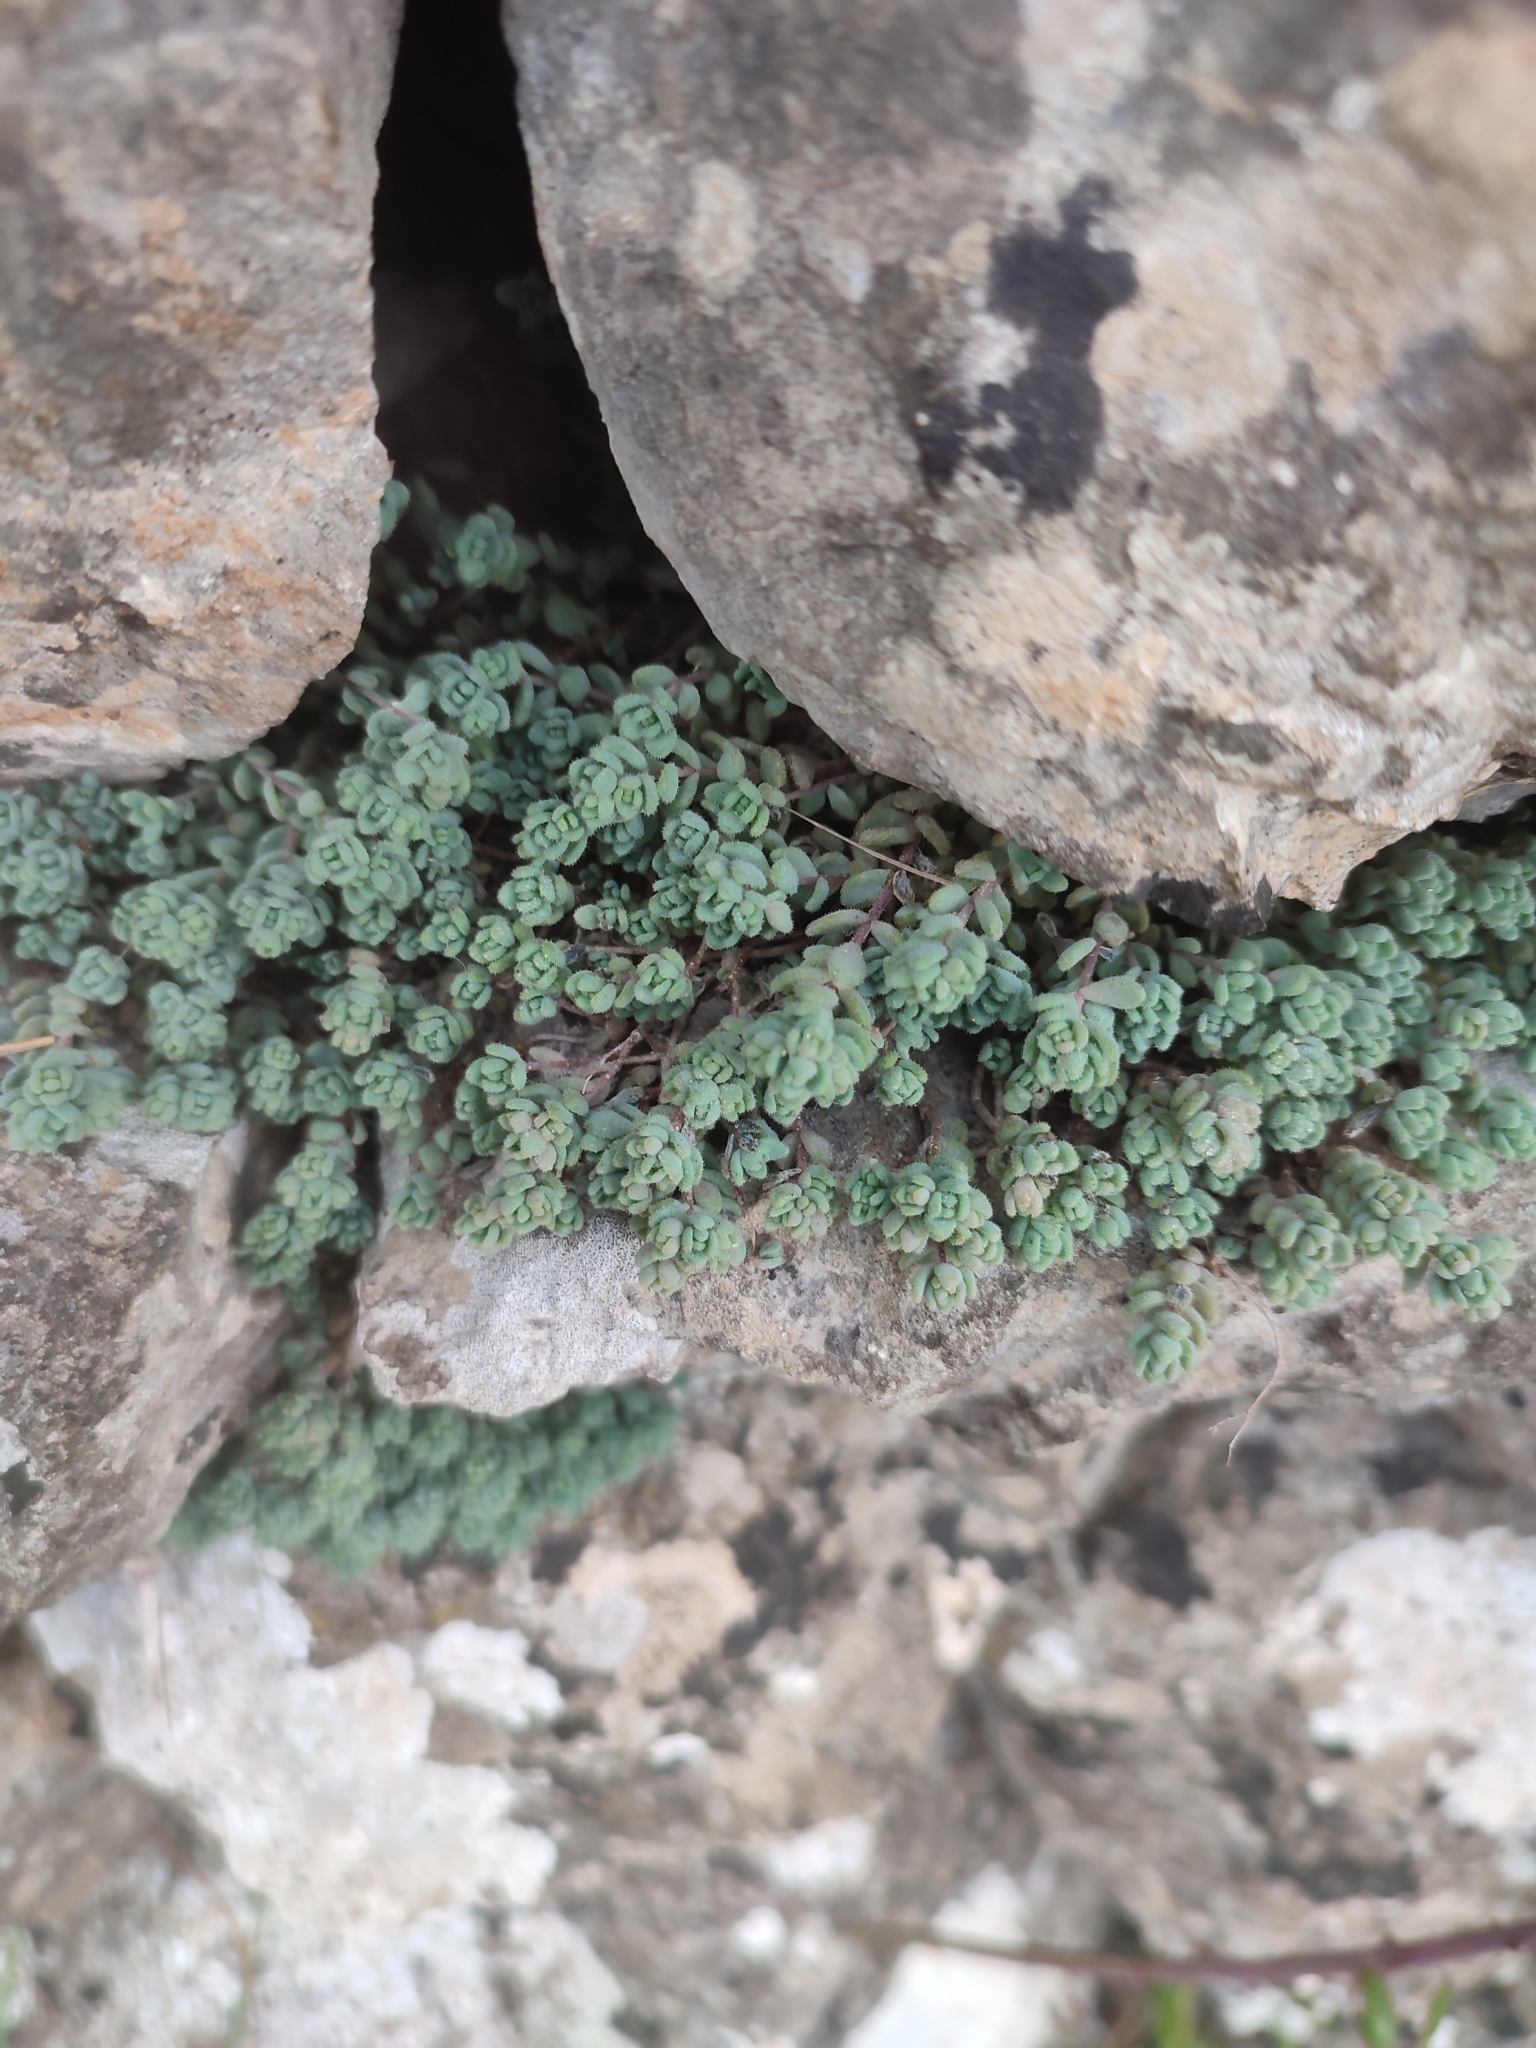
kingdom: Plantae
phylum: Tracheophyta
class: Magnoliopsida
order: Saxifragales
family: Crassulaceae
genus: Sedum
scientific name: Sedum dasyphyllum
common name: Thick-leaf stonecrop
